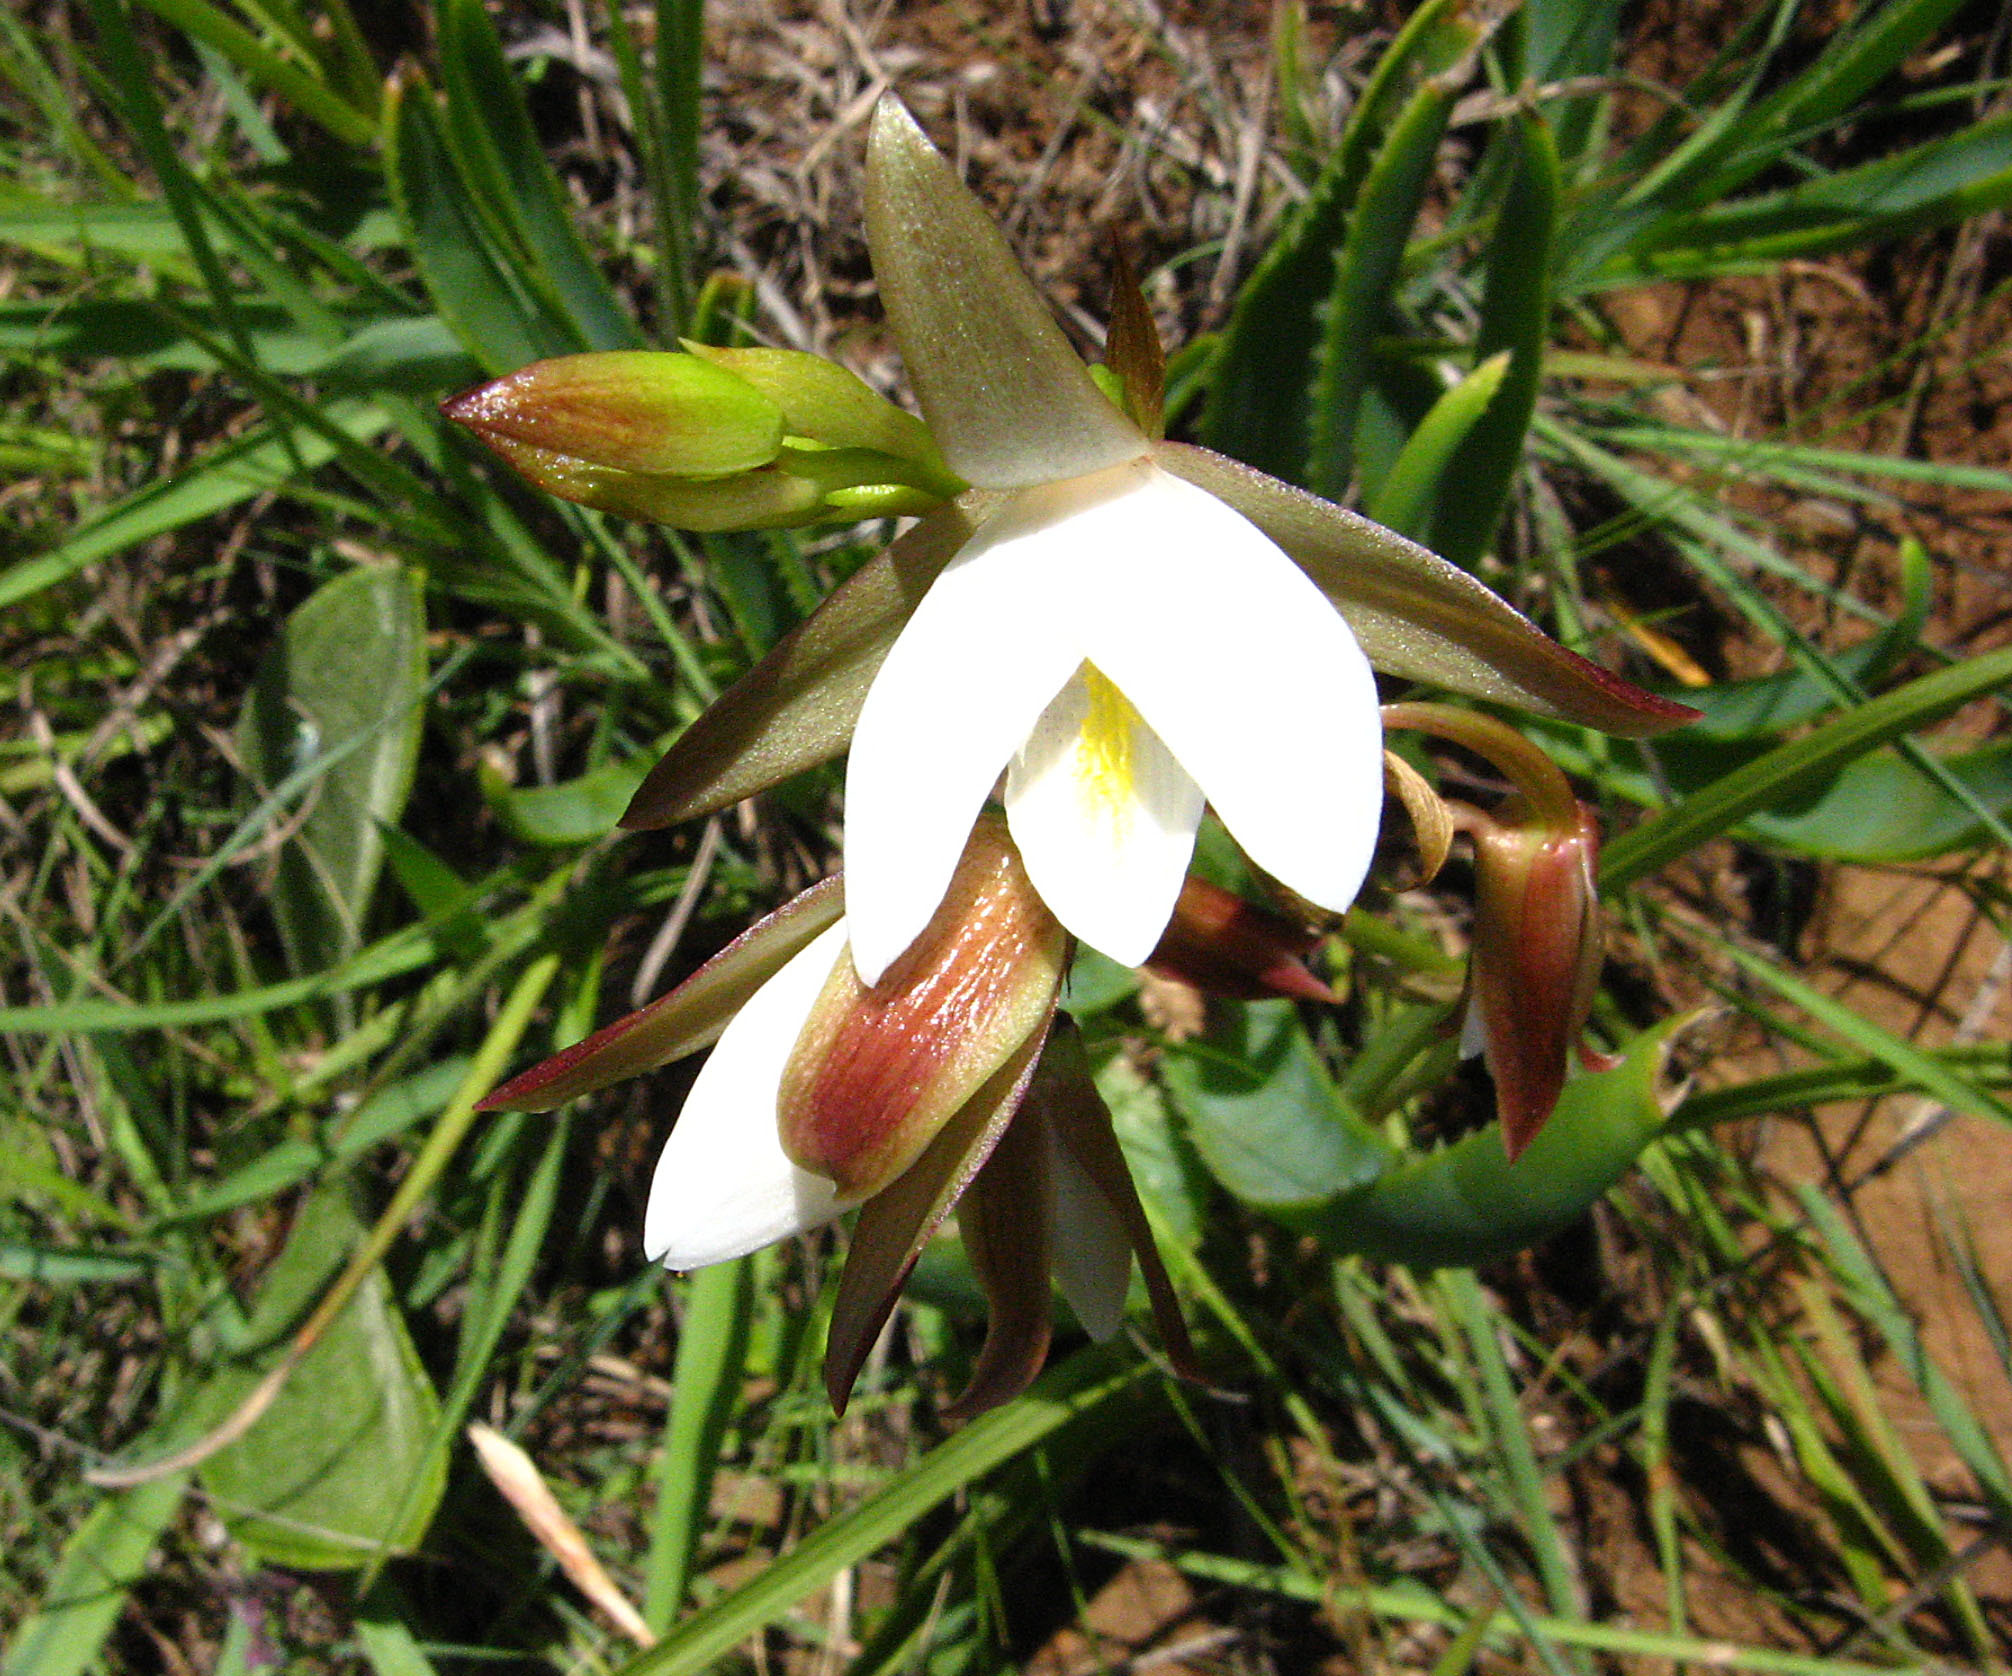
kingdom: Plantae
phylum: Tracheophyta
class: Liliopsida
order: Asparagales
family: Orchidaceae
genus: Eulophia
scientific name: Eulophia ovalis
